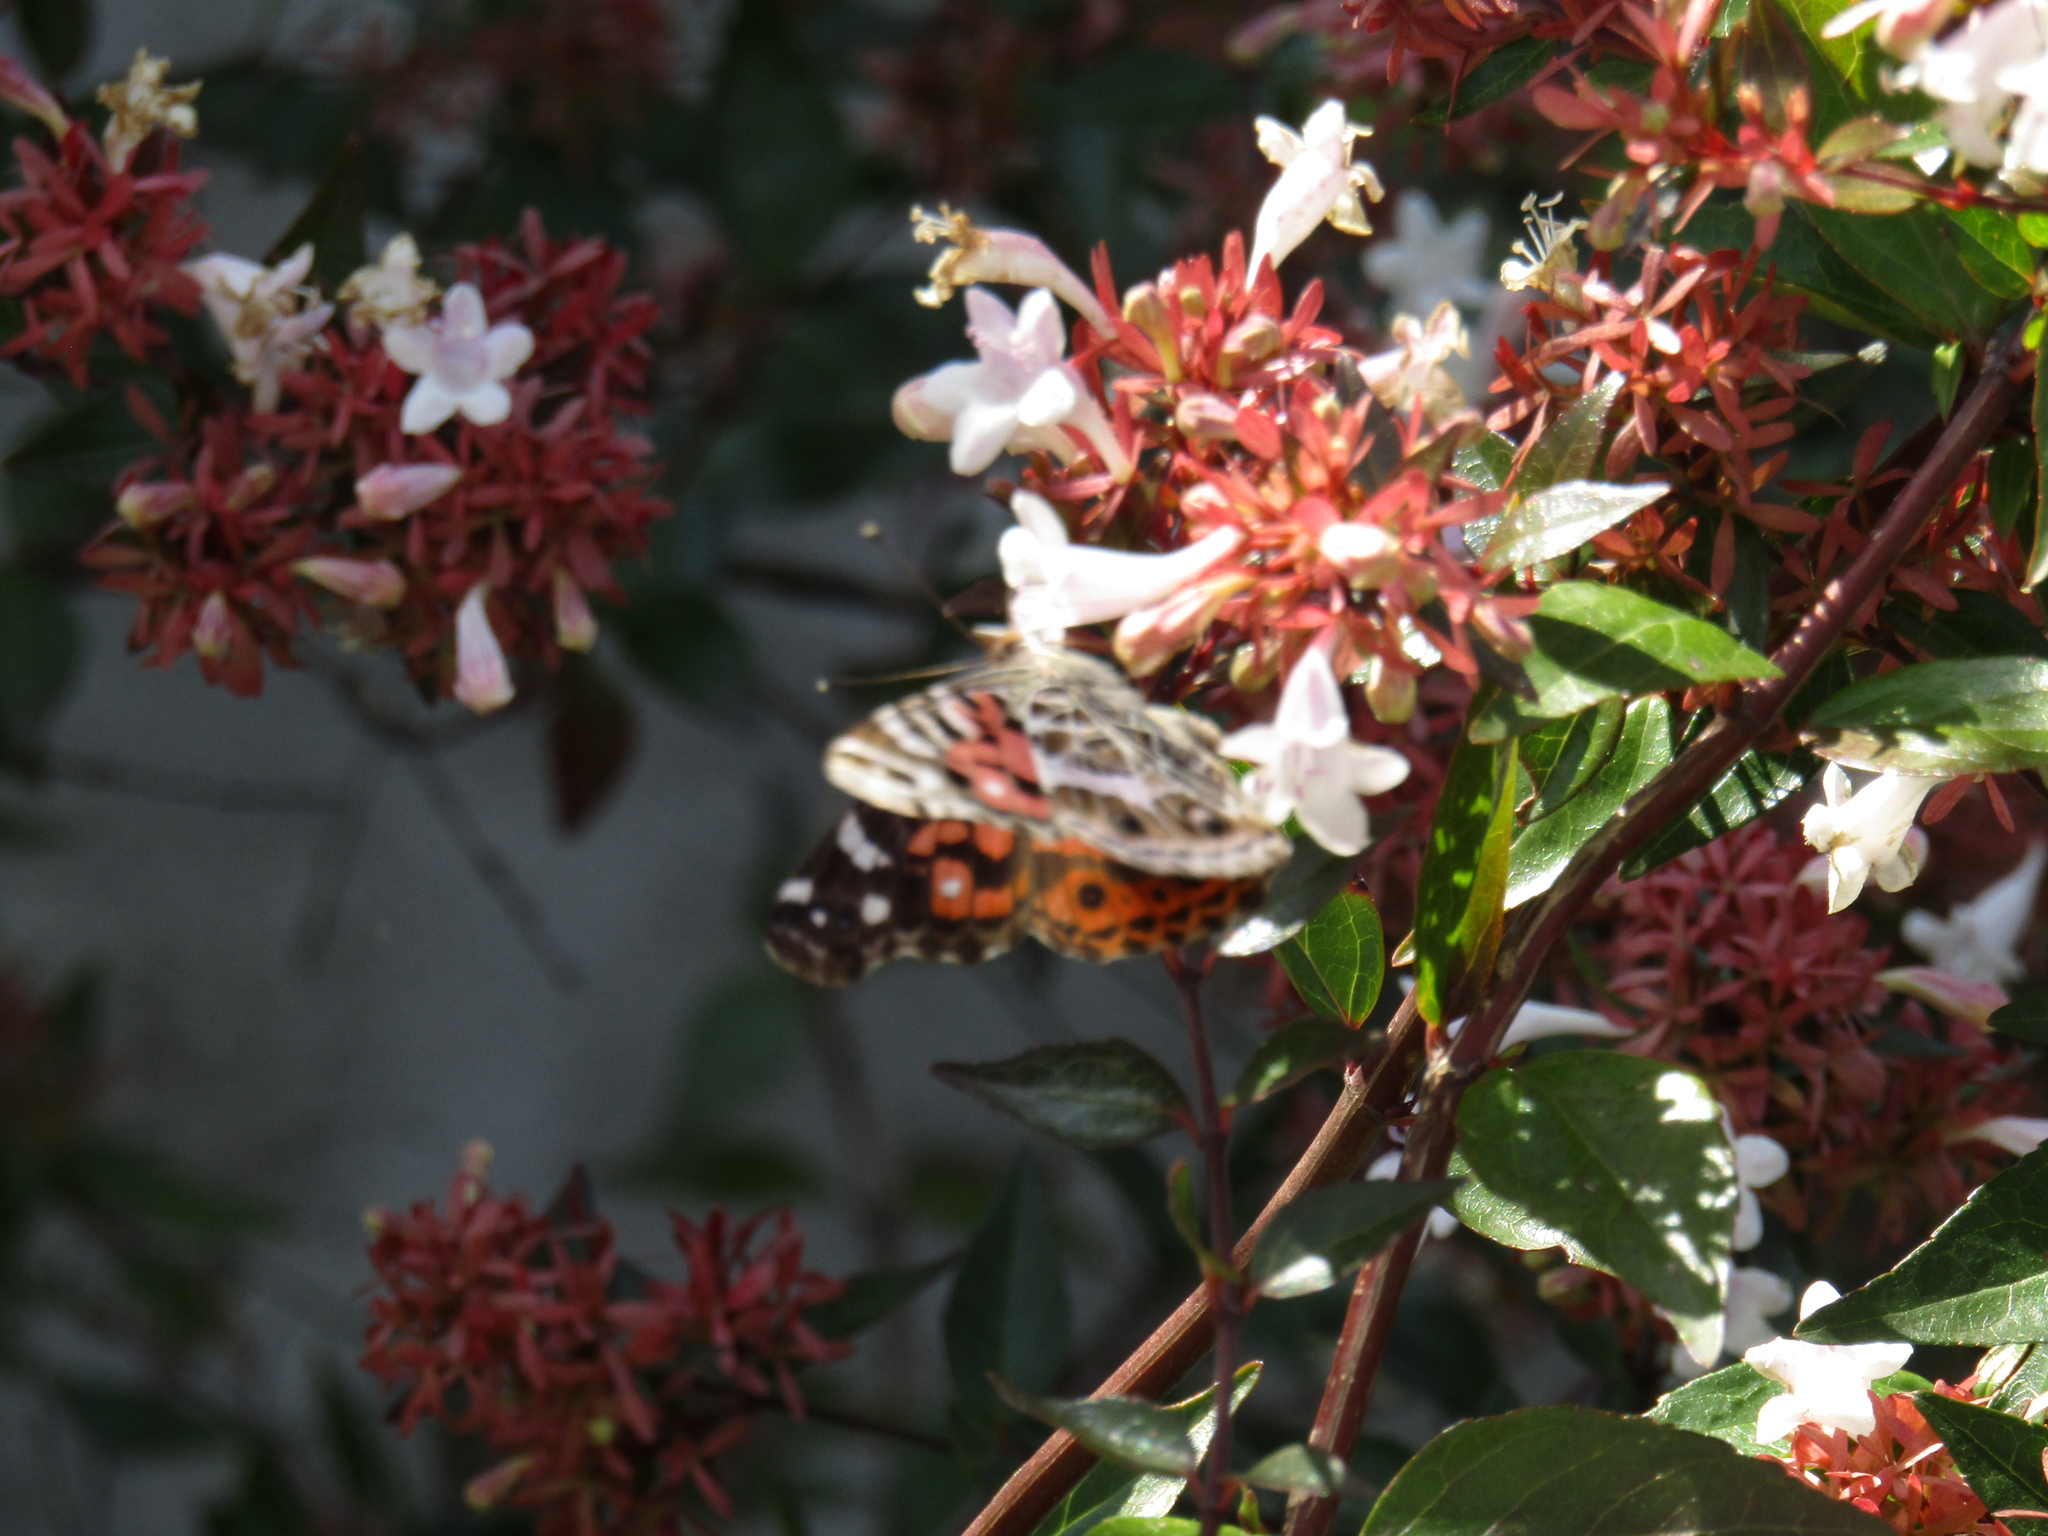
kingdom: Animalia
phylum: Arthropoda
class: Insecta
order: Lepidoptera
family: Nymphalidae
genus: Vanessa
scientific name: Vanessa braziliensis
